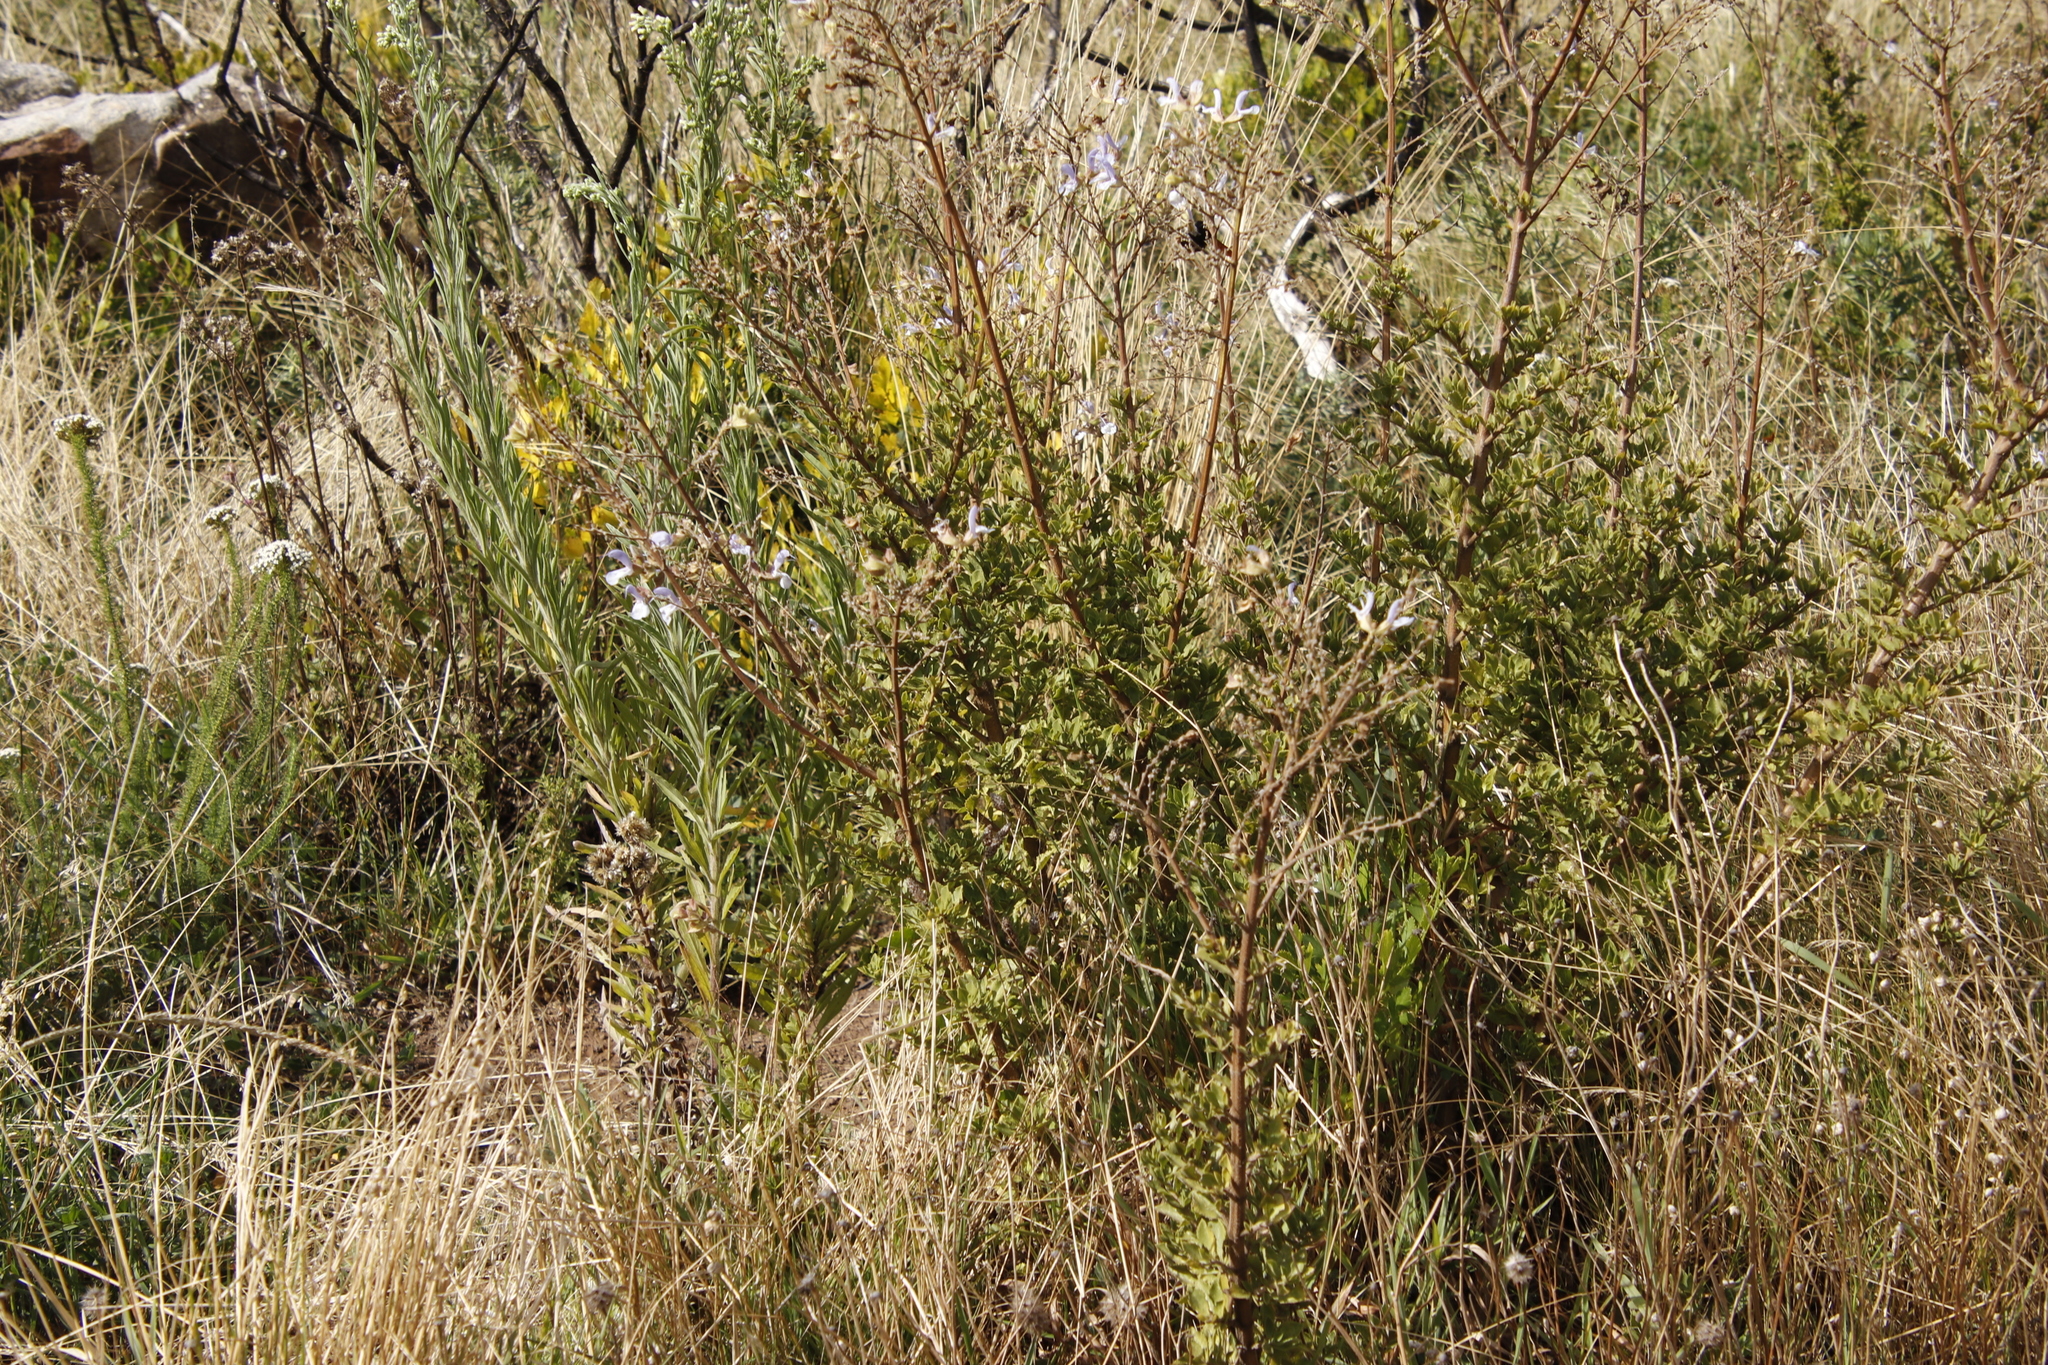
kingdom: Plantae
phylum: Tracheophyta
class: Magnoliopsida
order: Lamiales
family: Lamiaceae
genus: Salvia
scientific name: Salvia chamelaeagnea
